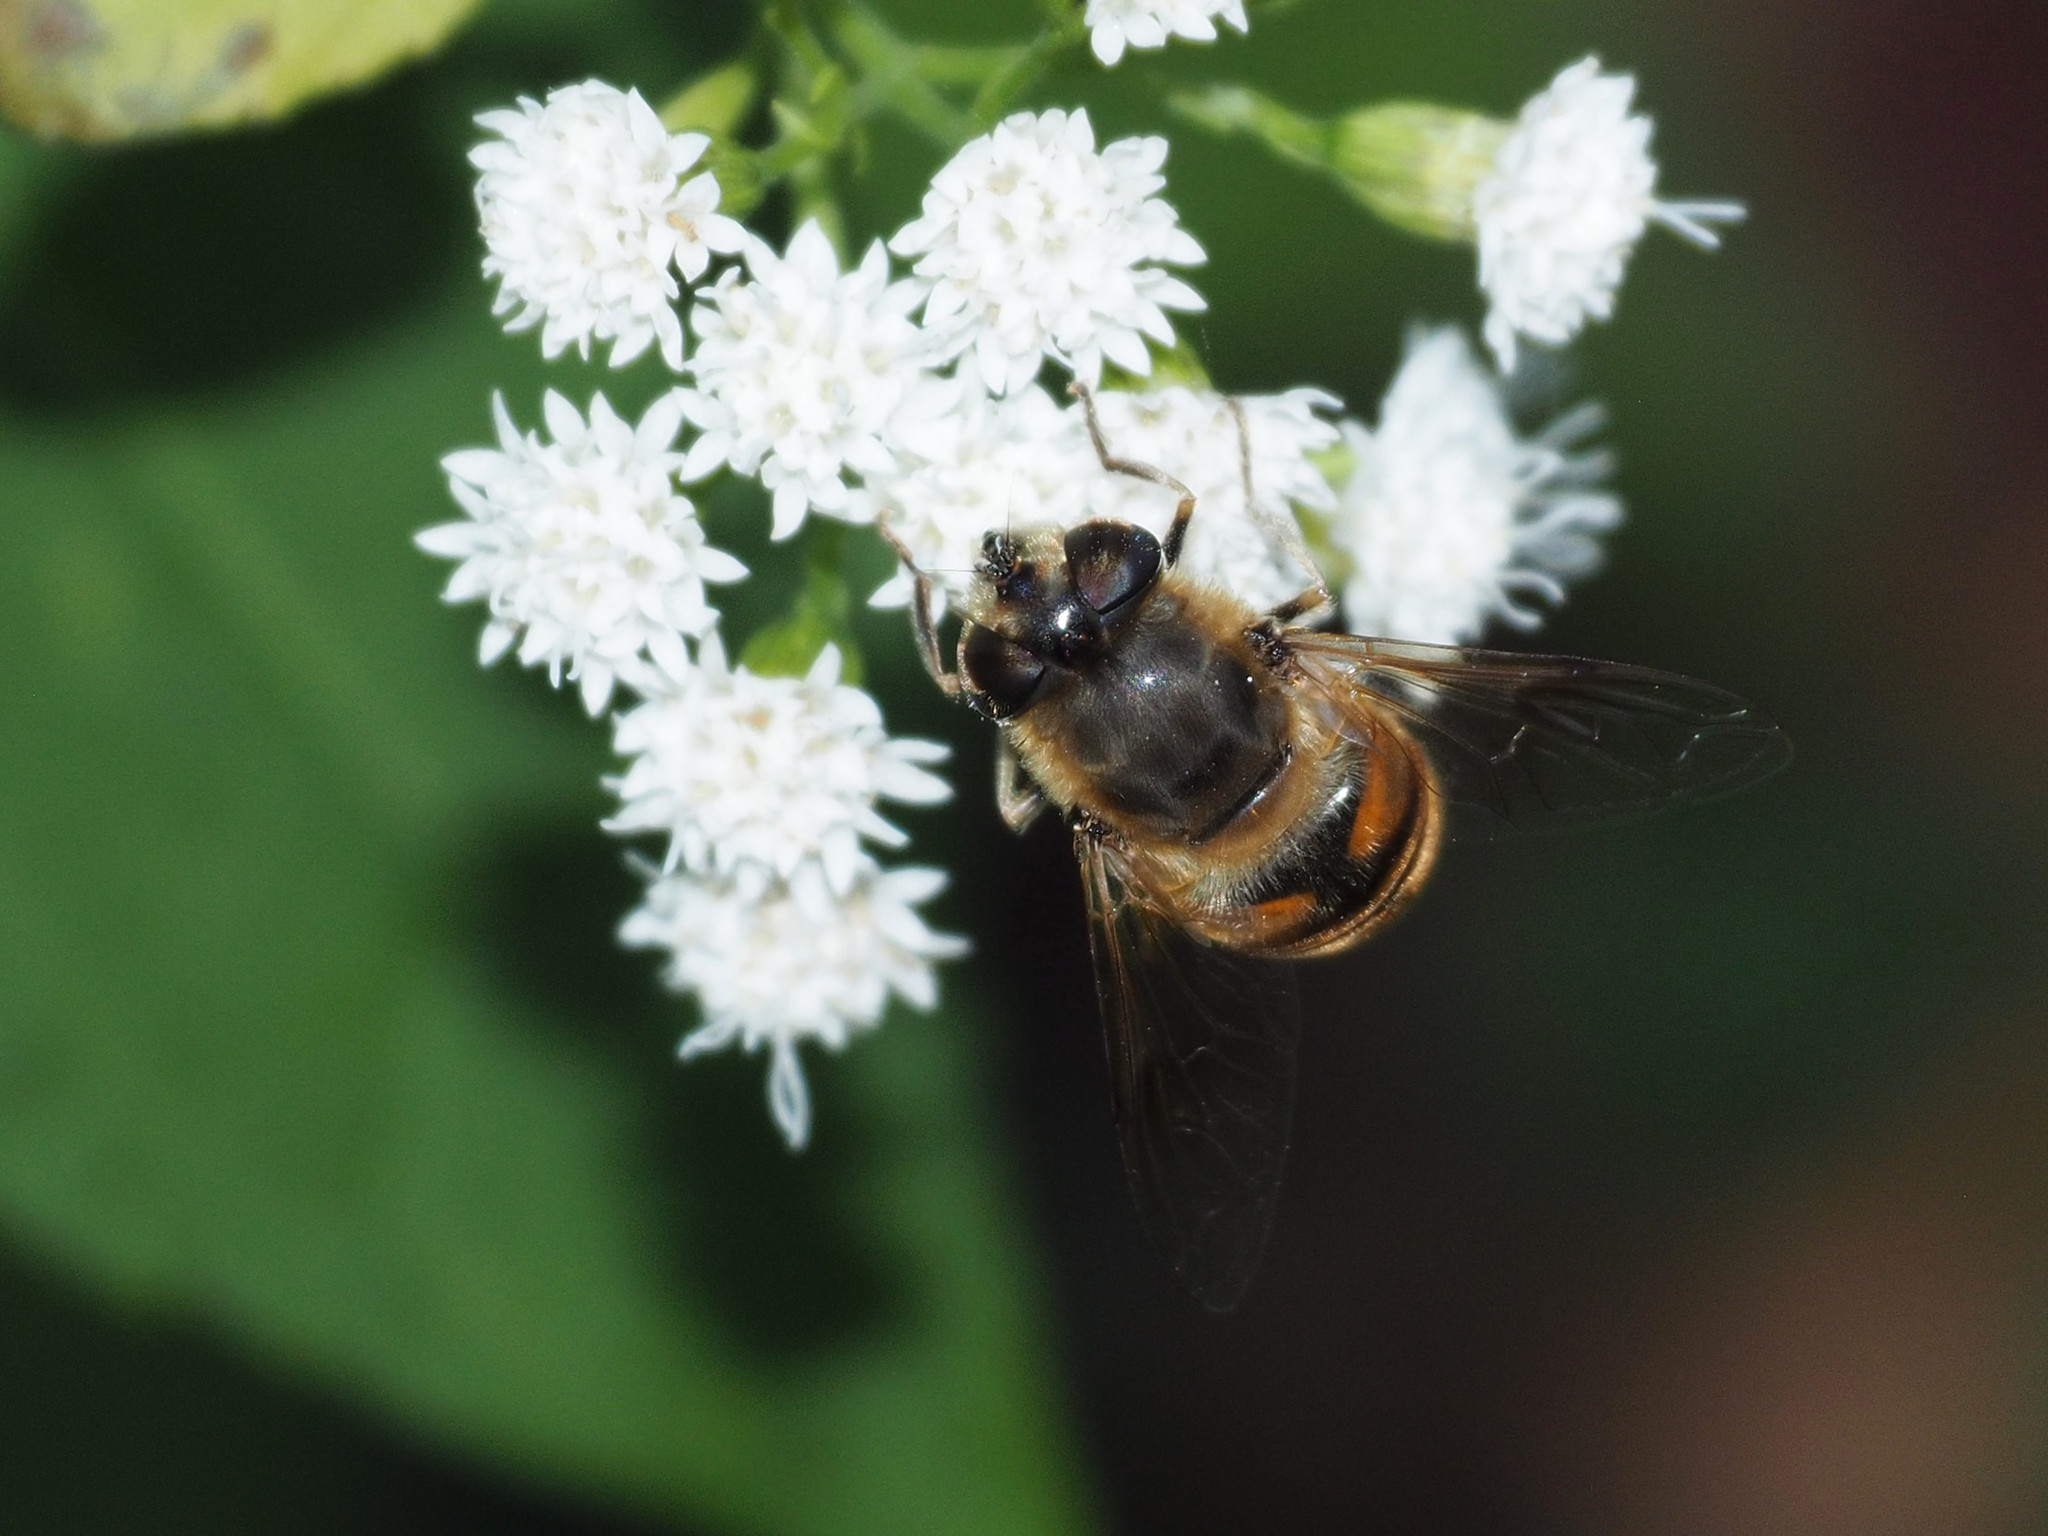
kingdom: Animalia
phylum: Arthropoda
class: Insecta
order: Diptera
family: Syrphidae
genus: Eristalis
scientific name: Eristalis tenax
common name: Drone fly
